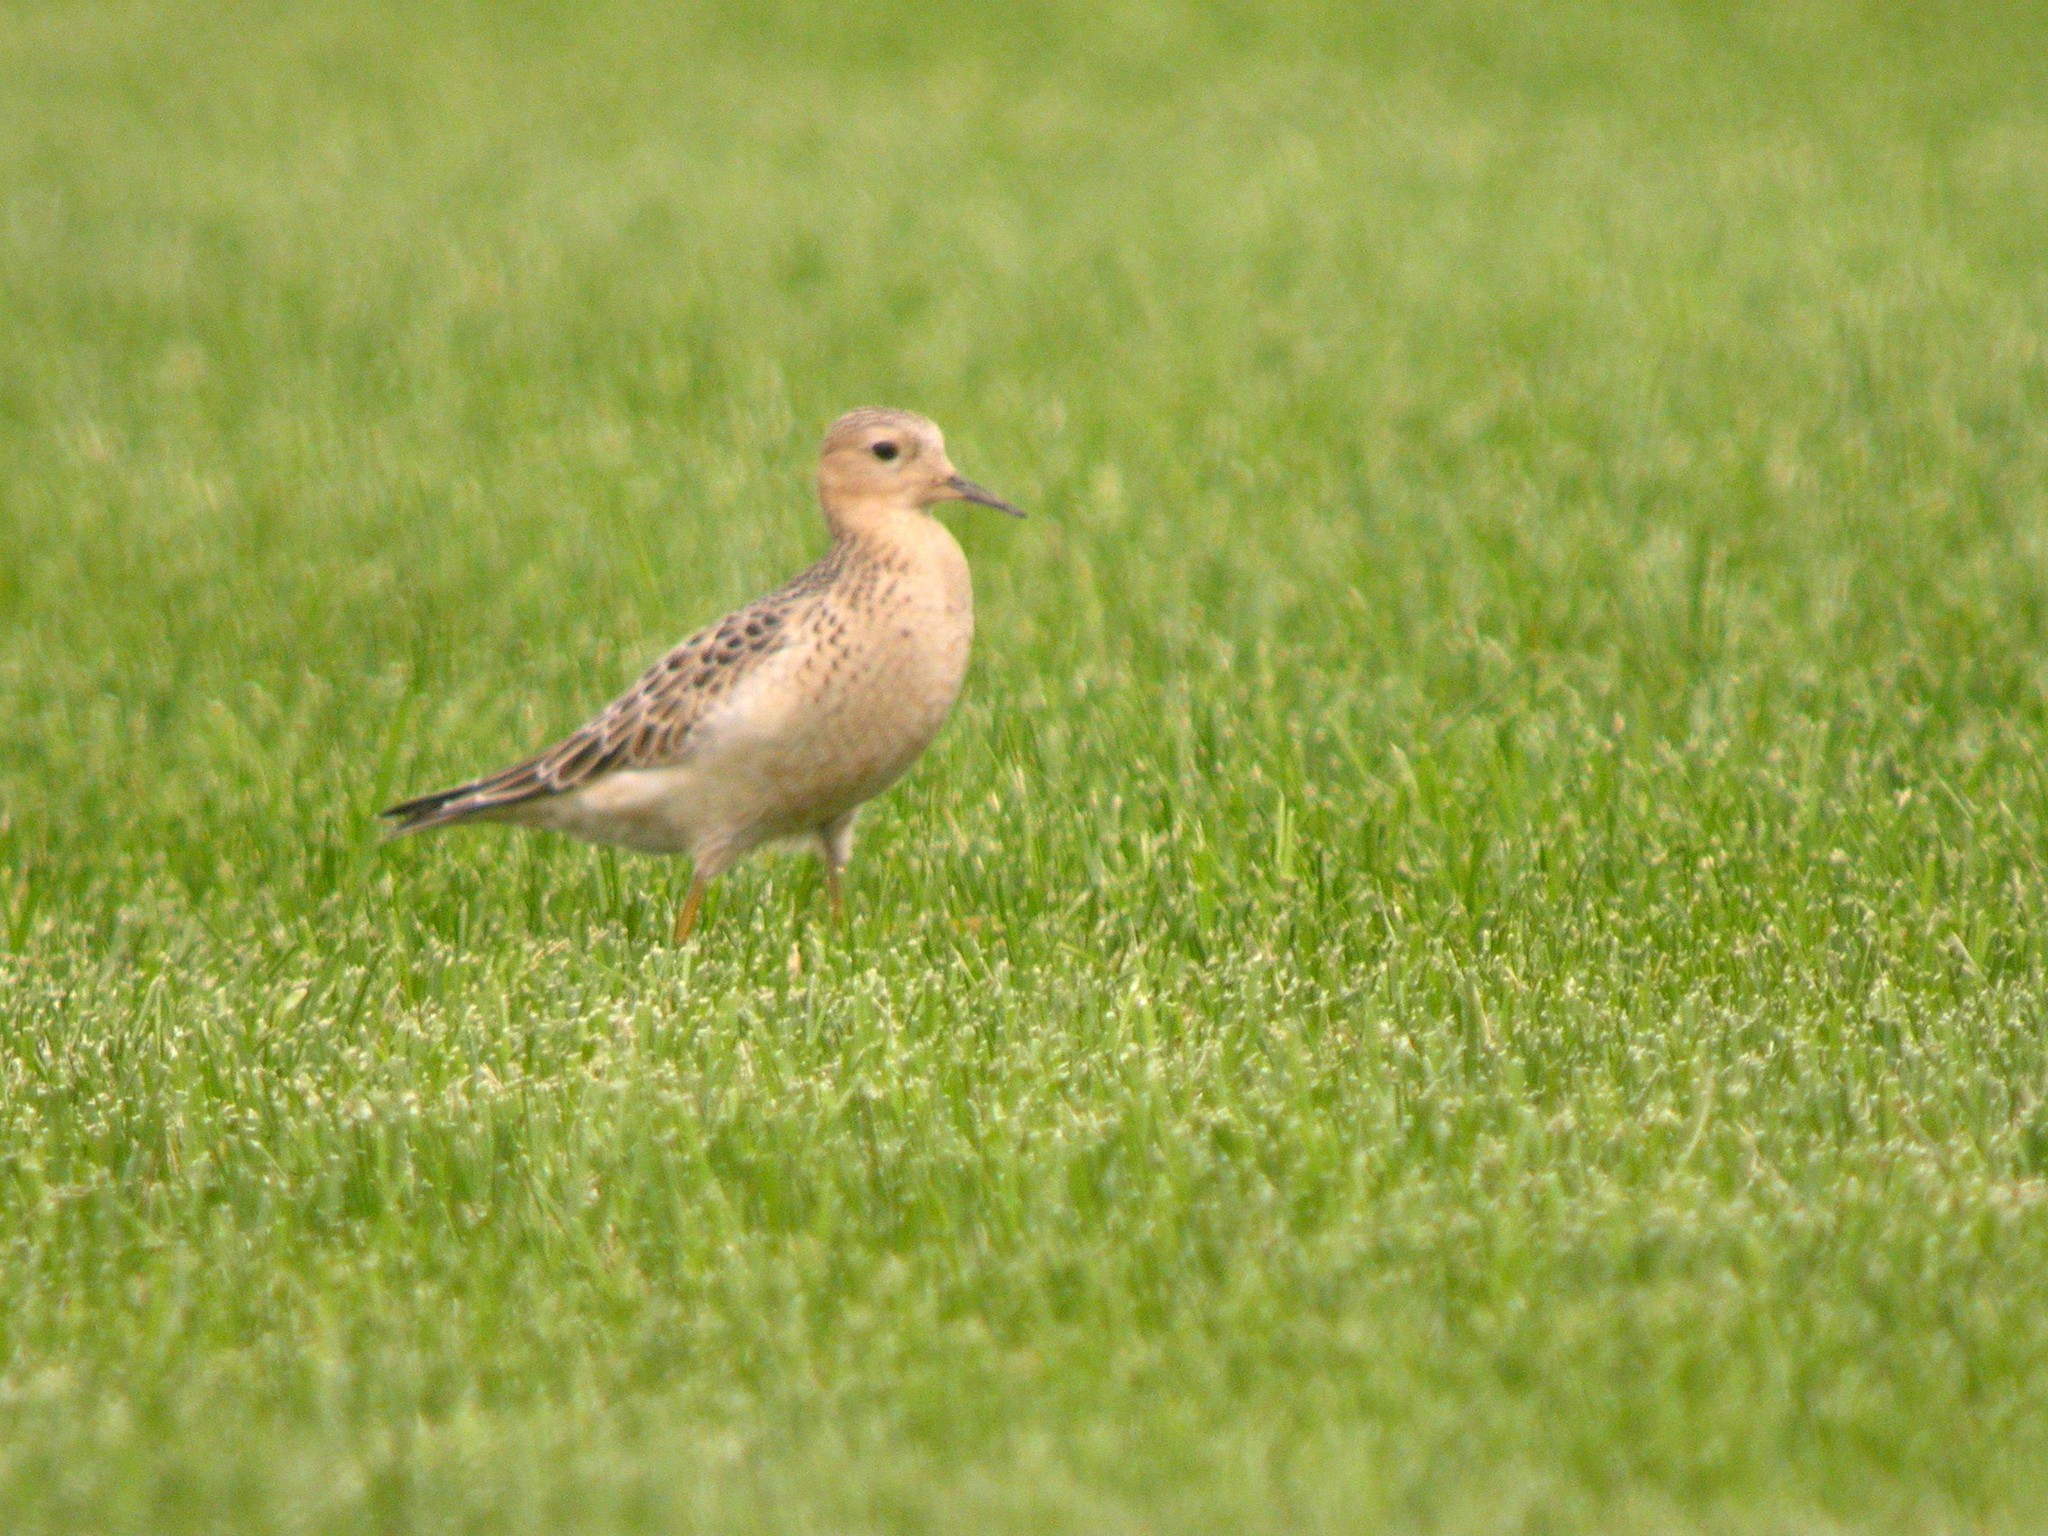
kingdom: Animalia
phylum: Chordata
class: Aves
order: Charadriiformes
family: Scolopacidae
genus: Calidris
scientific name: Calidris subruficollis
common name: Buff-breasted sandpiper
